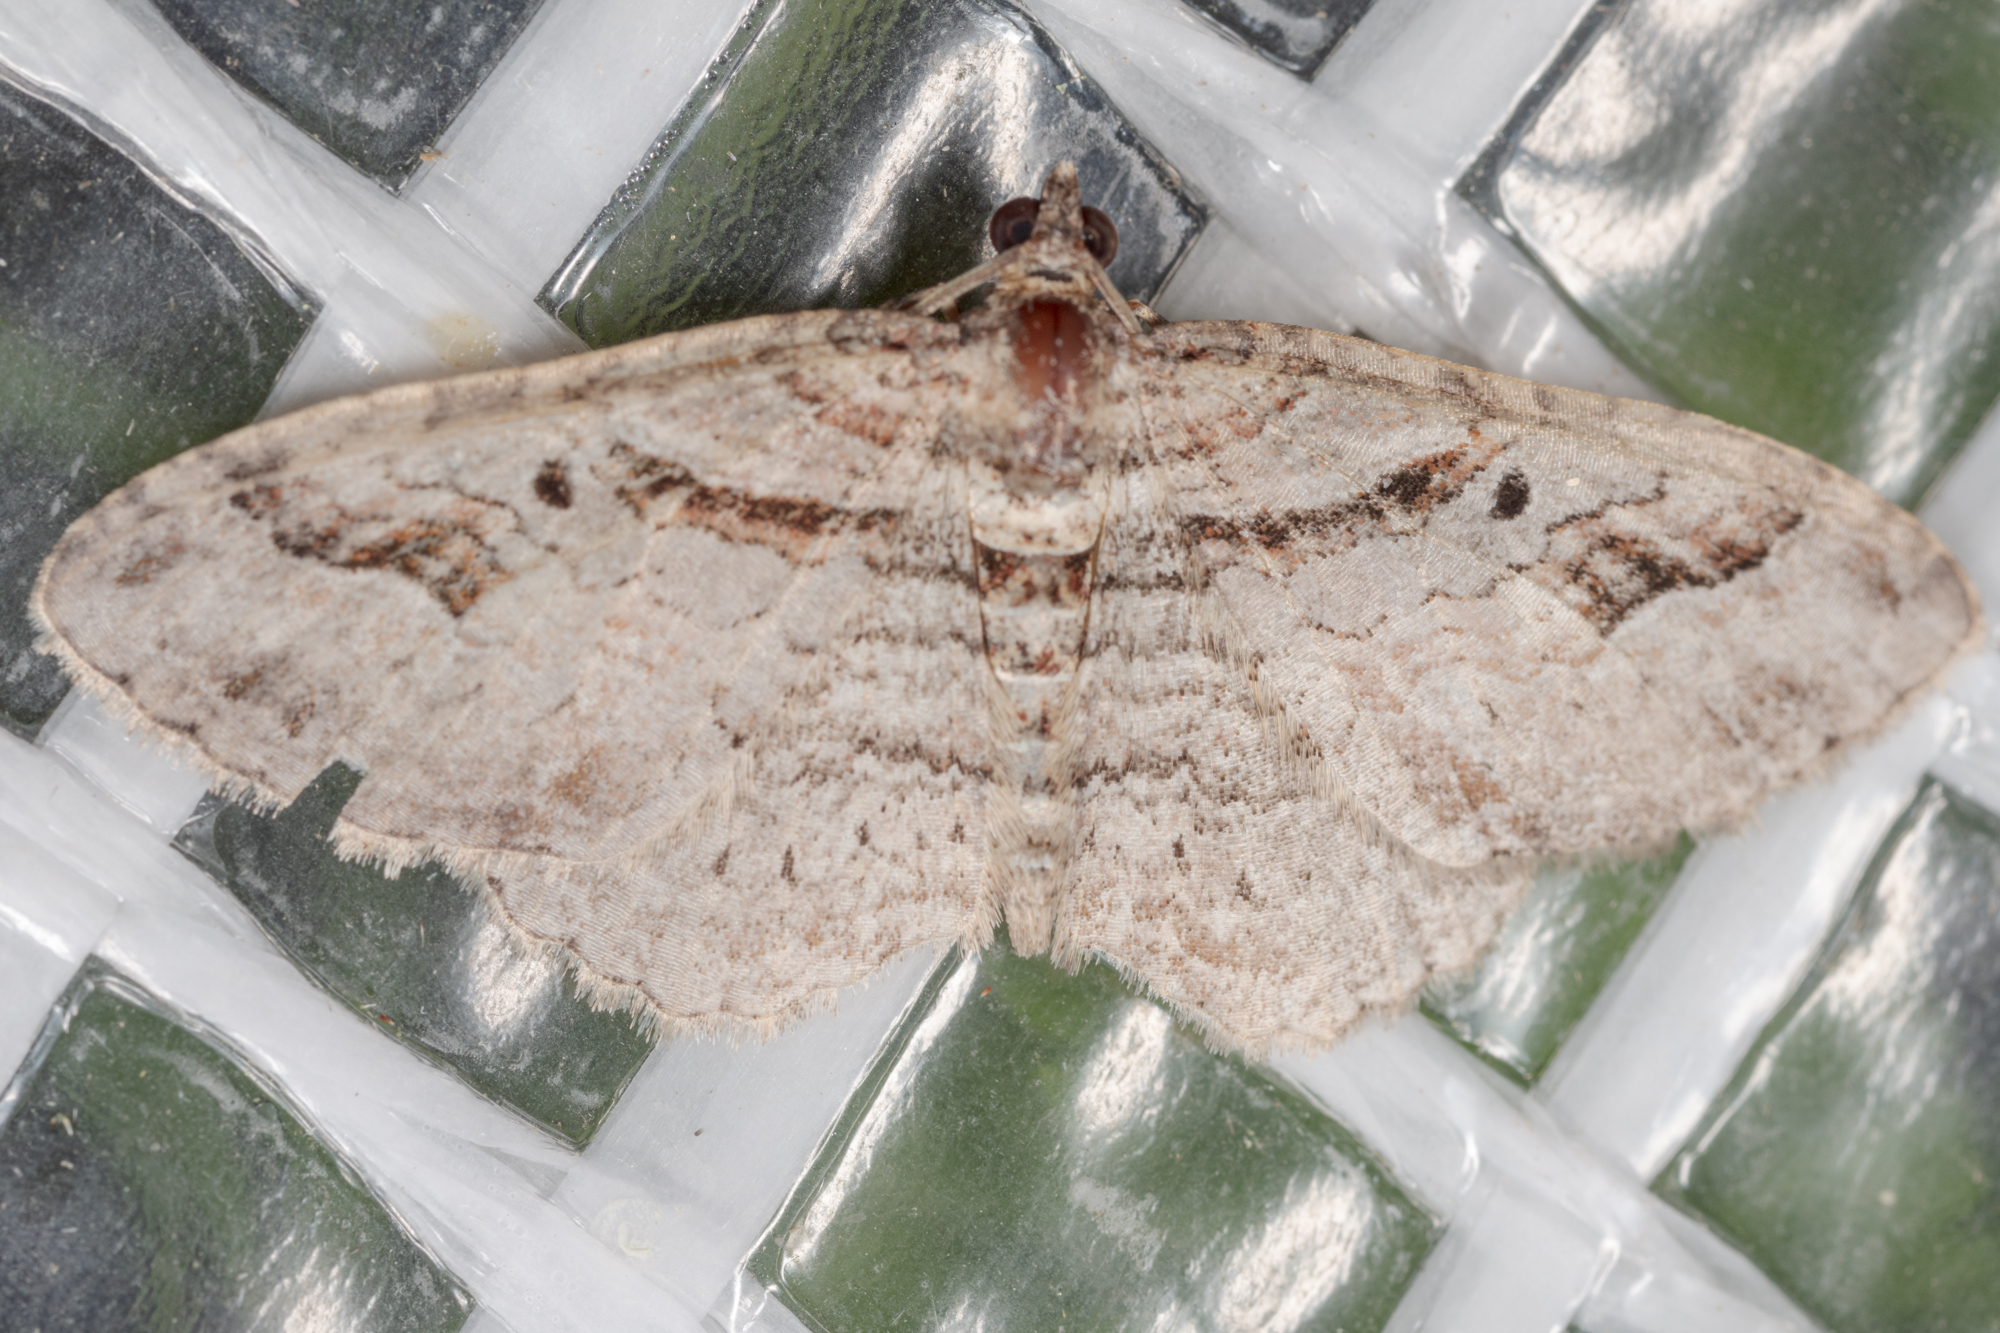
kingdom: Animalia
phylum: Arthropoda
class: Insecta
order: Lepidoptera
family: Geometridae
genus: Costaconvexa
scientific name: Costaconvexa centrostrigaria
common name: Bent-line carpet
